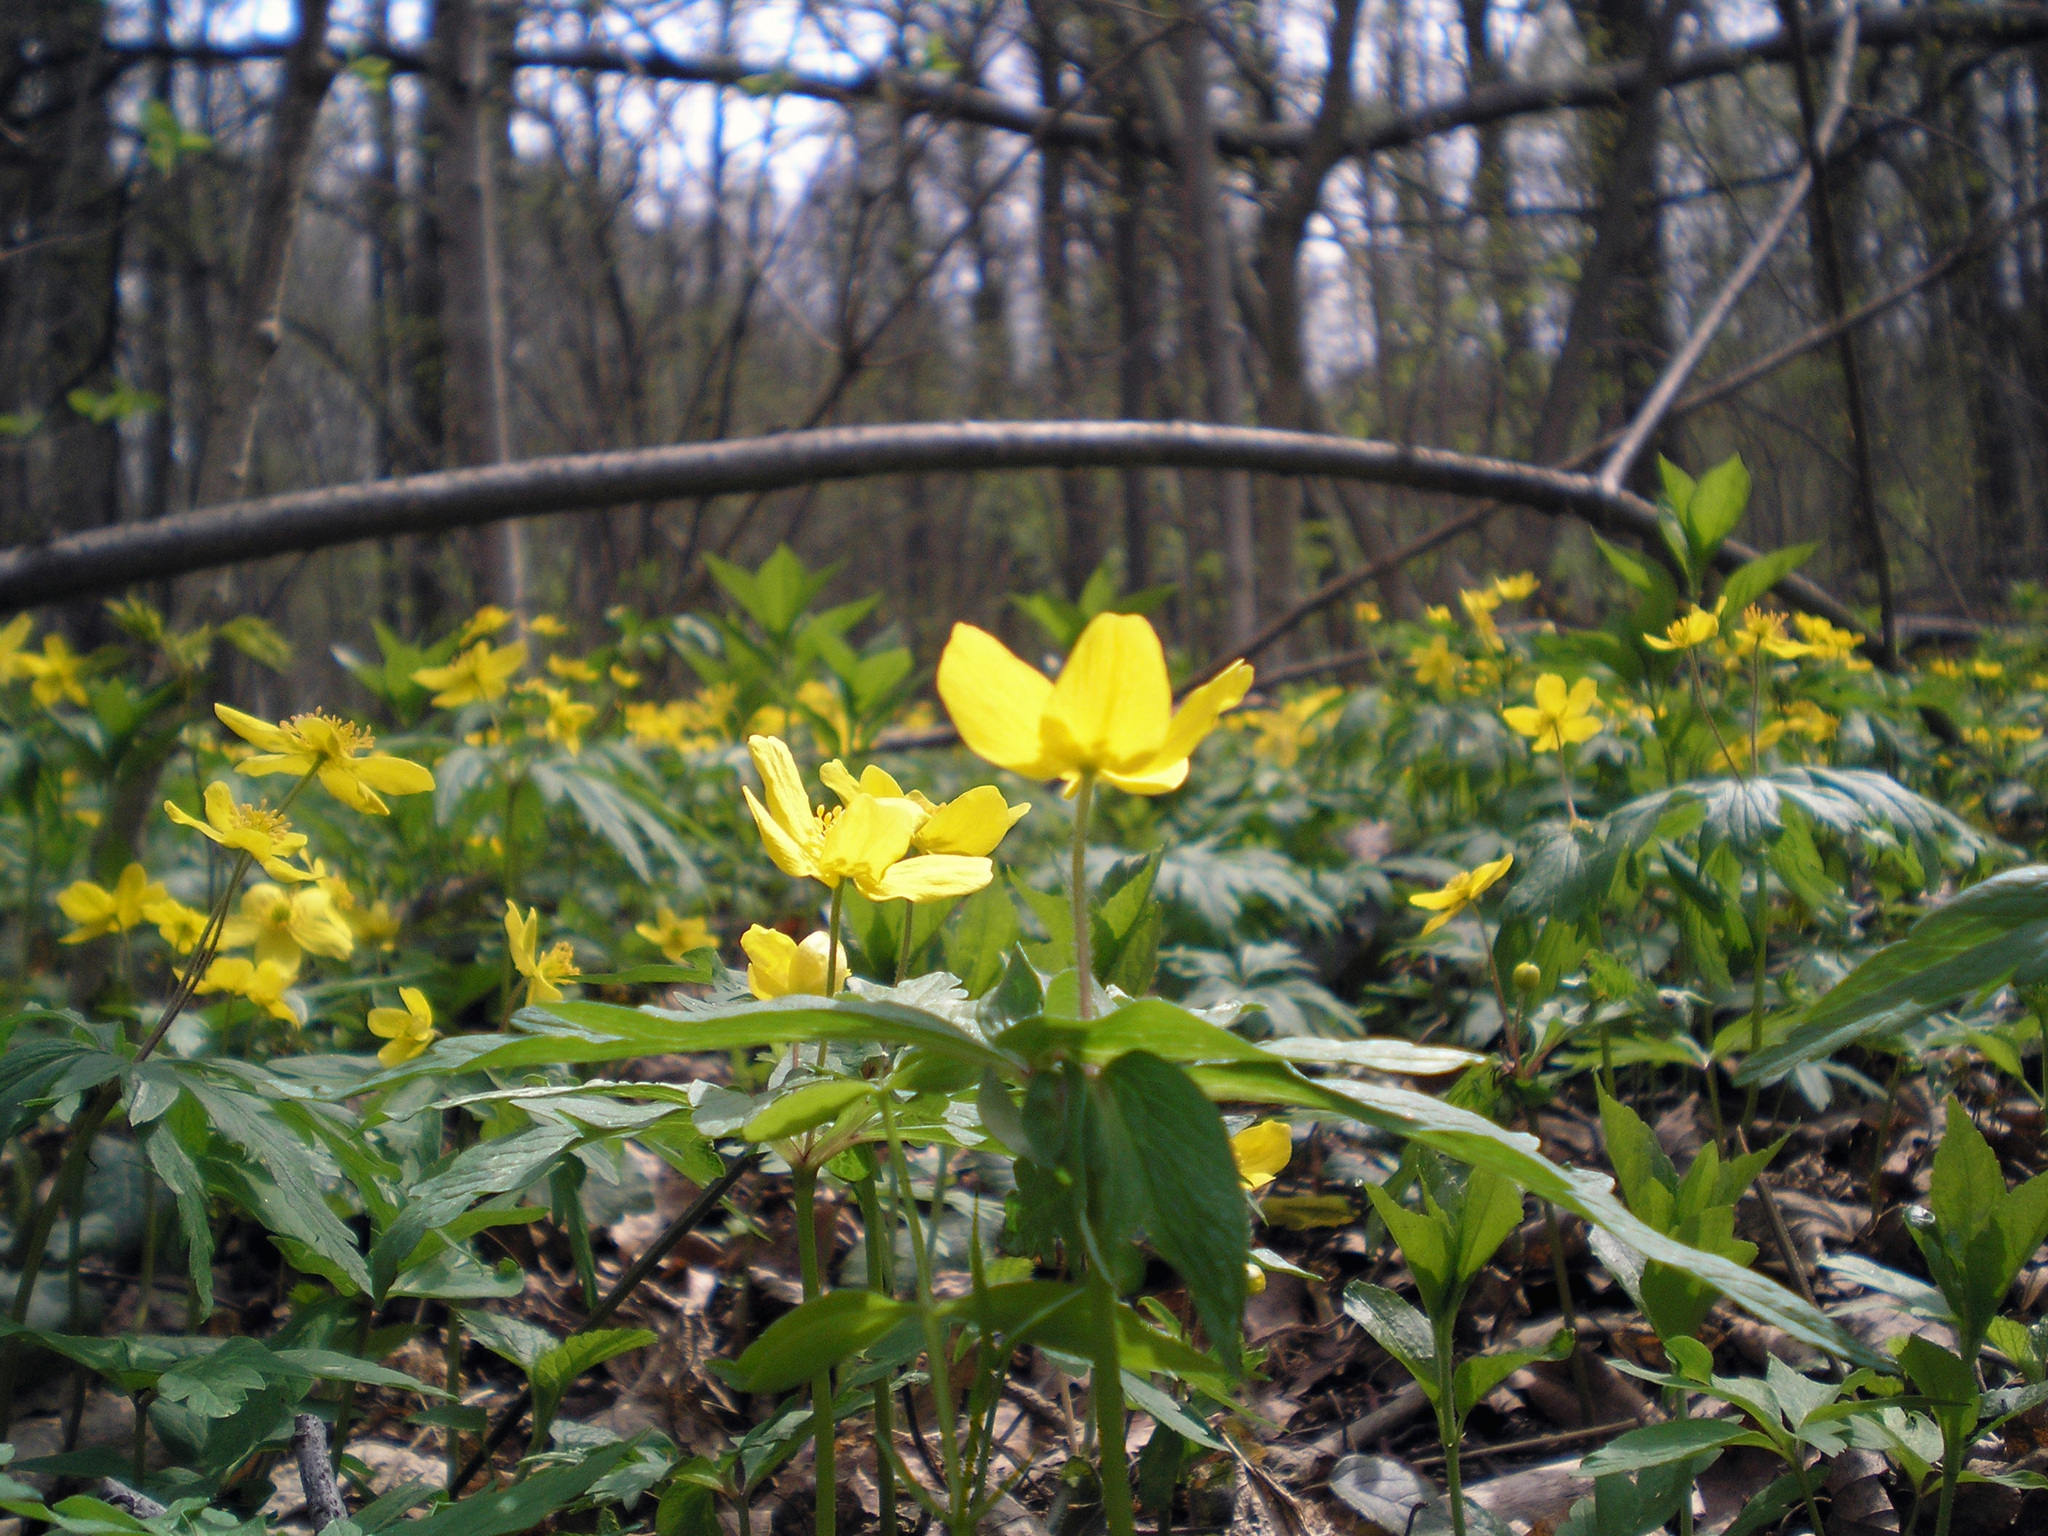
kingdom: Plantae
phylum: Tracheophyta
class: Magnoliopsida
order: Ranunculales
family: Ranunculaceae
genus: Anemone
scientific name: Anemone ranunculoides
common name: Yellow anemone
